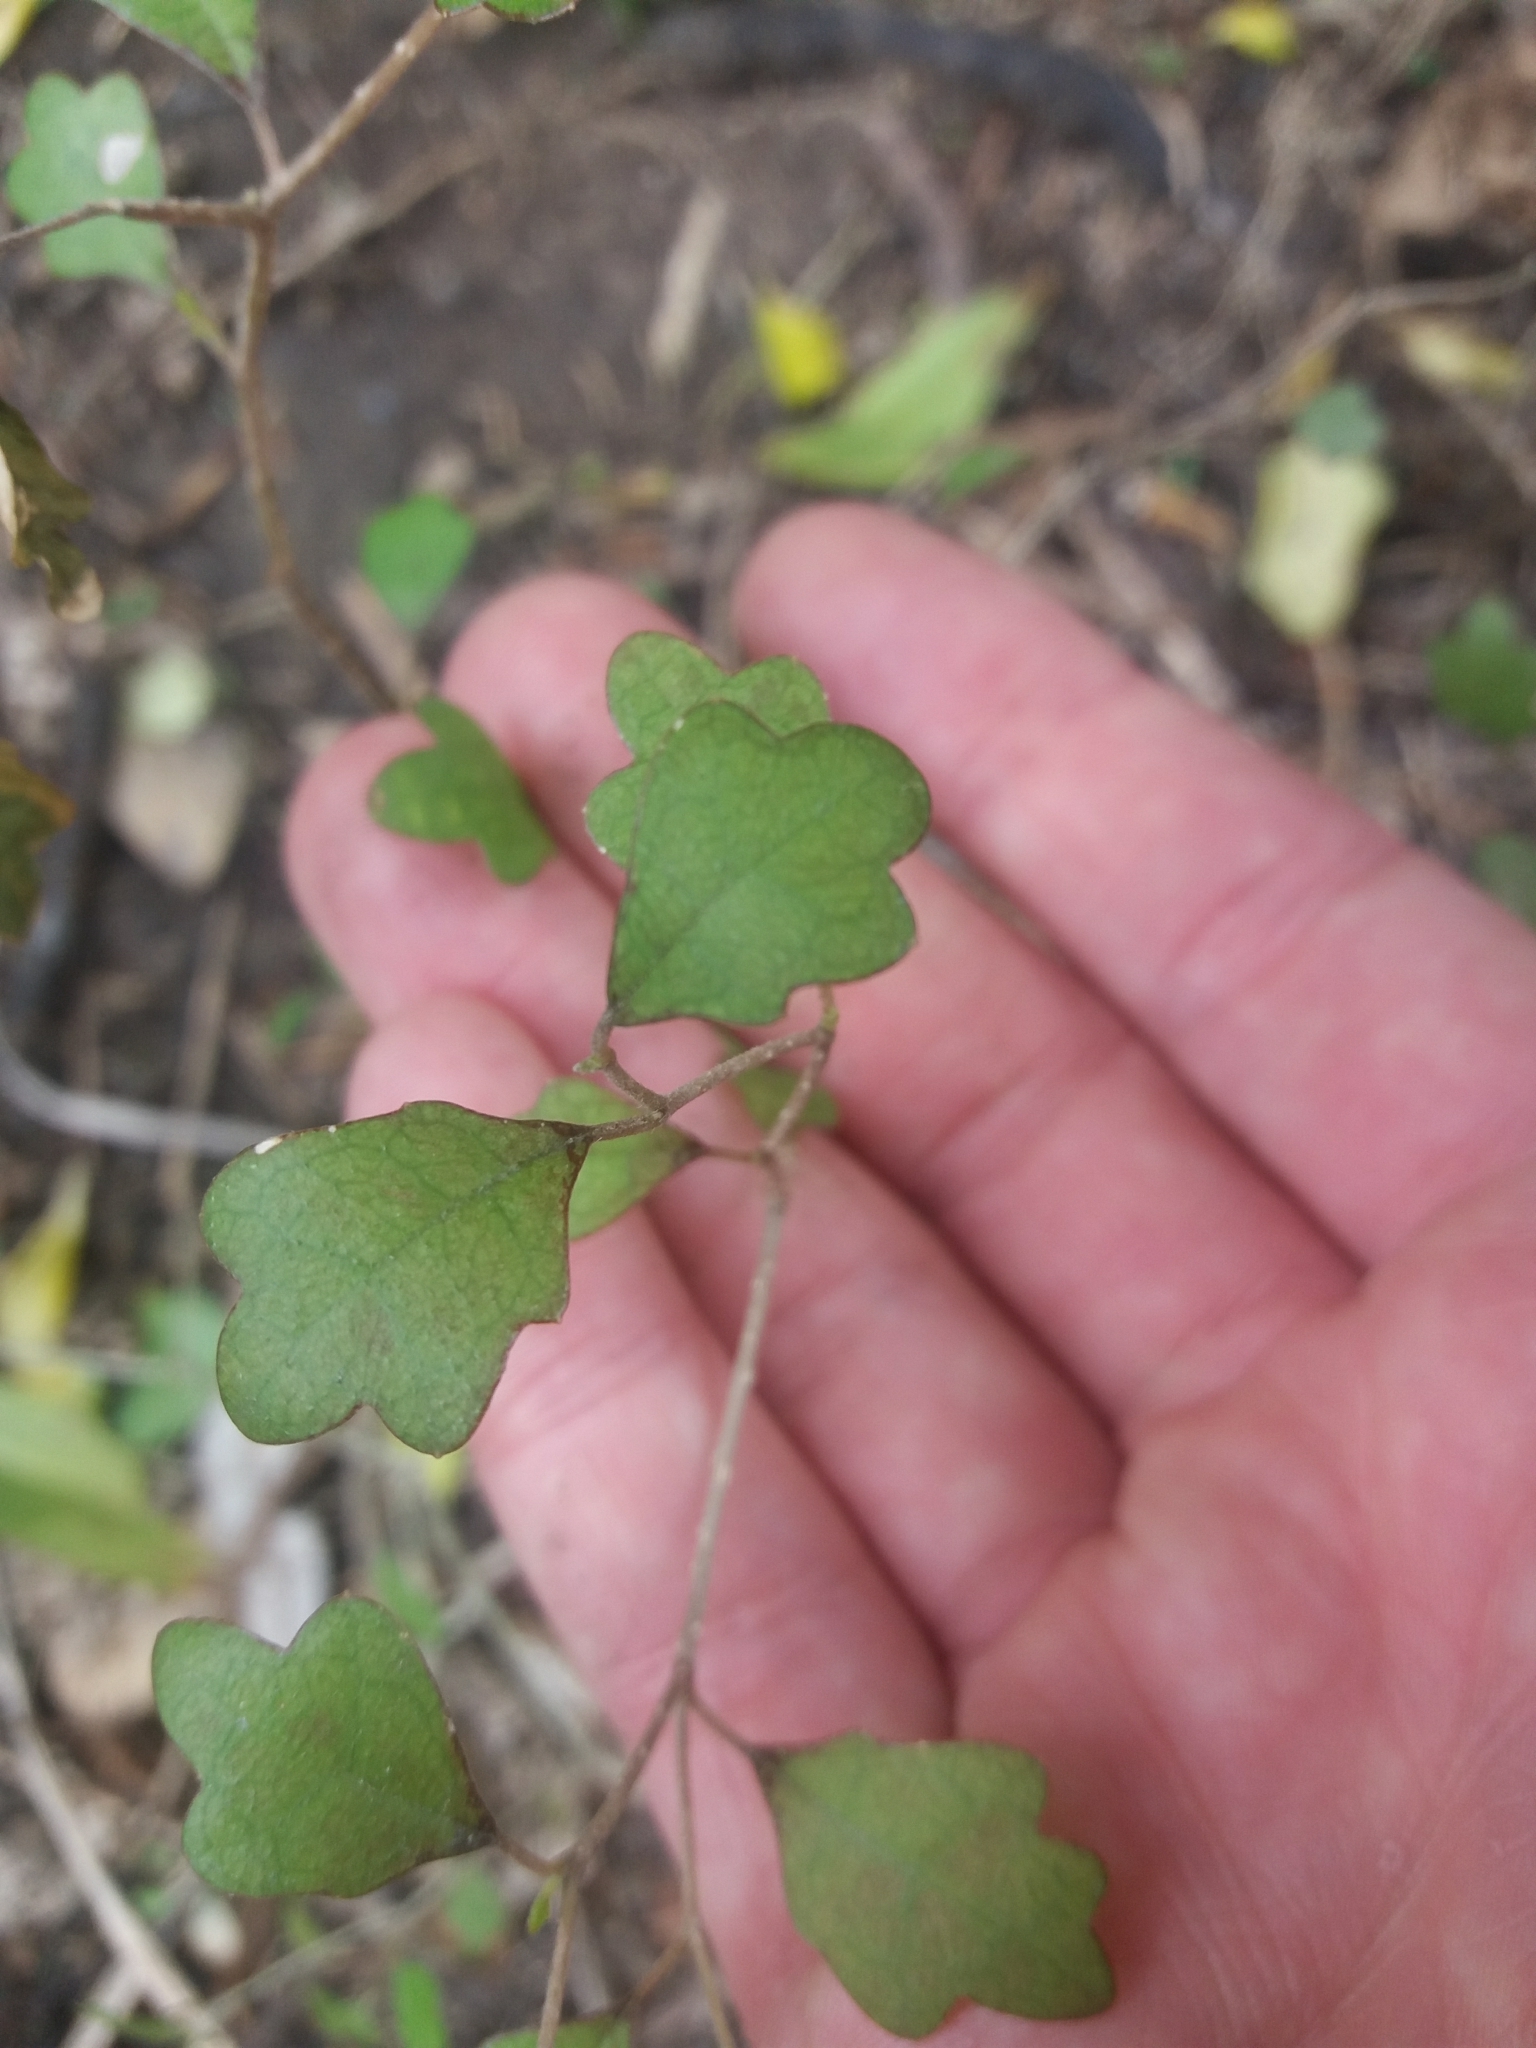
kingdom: Plantae
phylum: Tracheophyta
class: Magnoliopsida
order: Apiales
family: Pennantiaceae
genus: Pennantia
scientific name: Pennantia corymbosa
